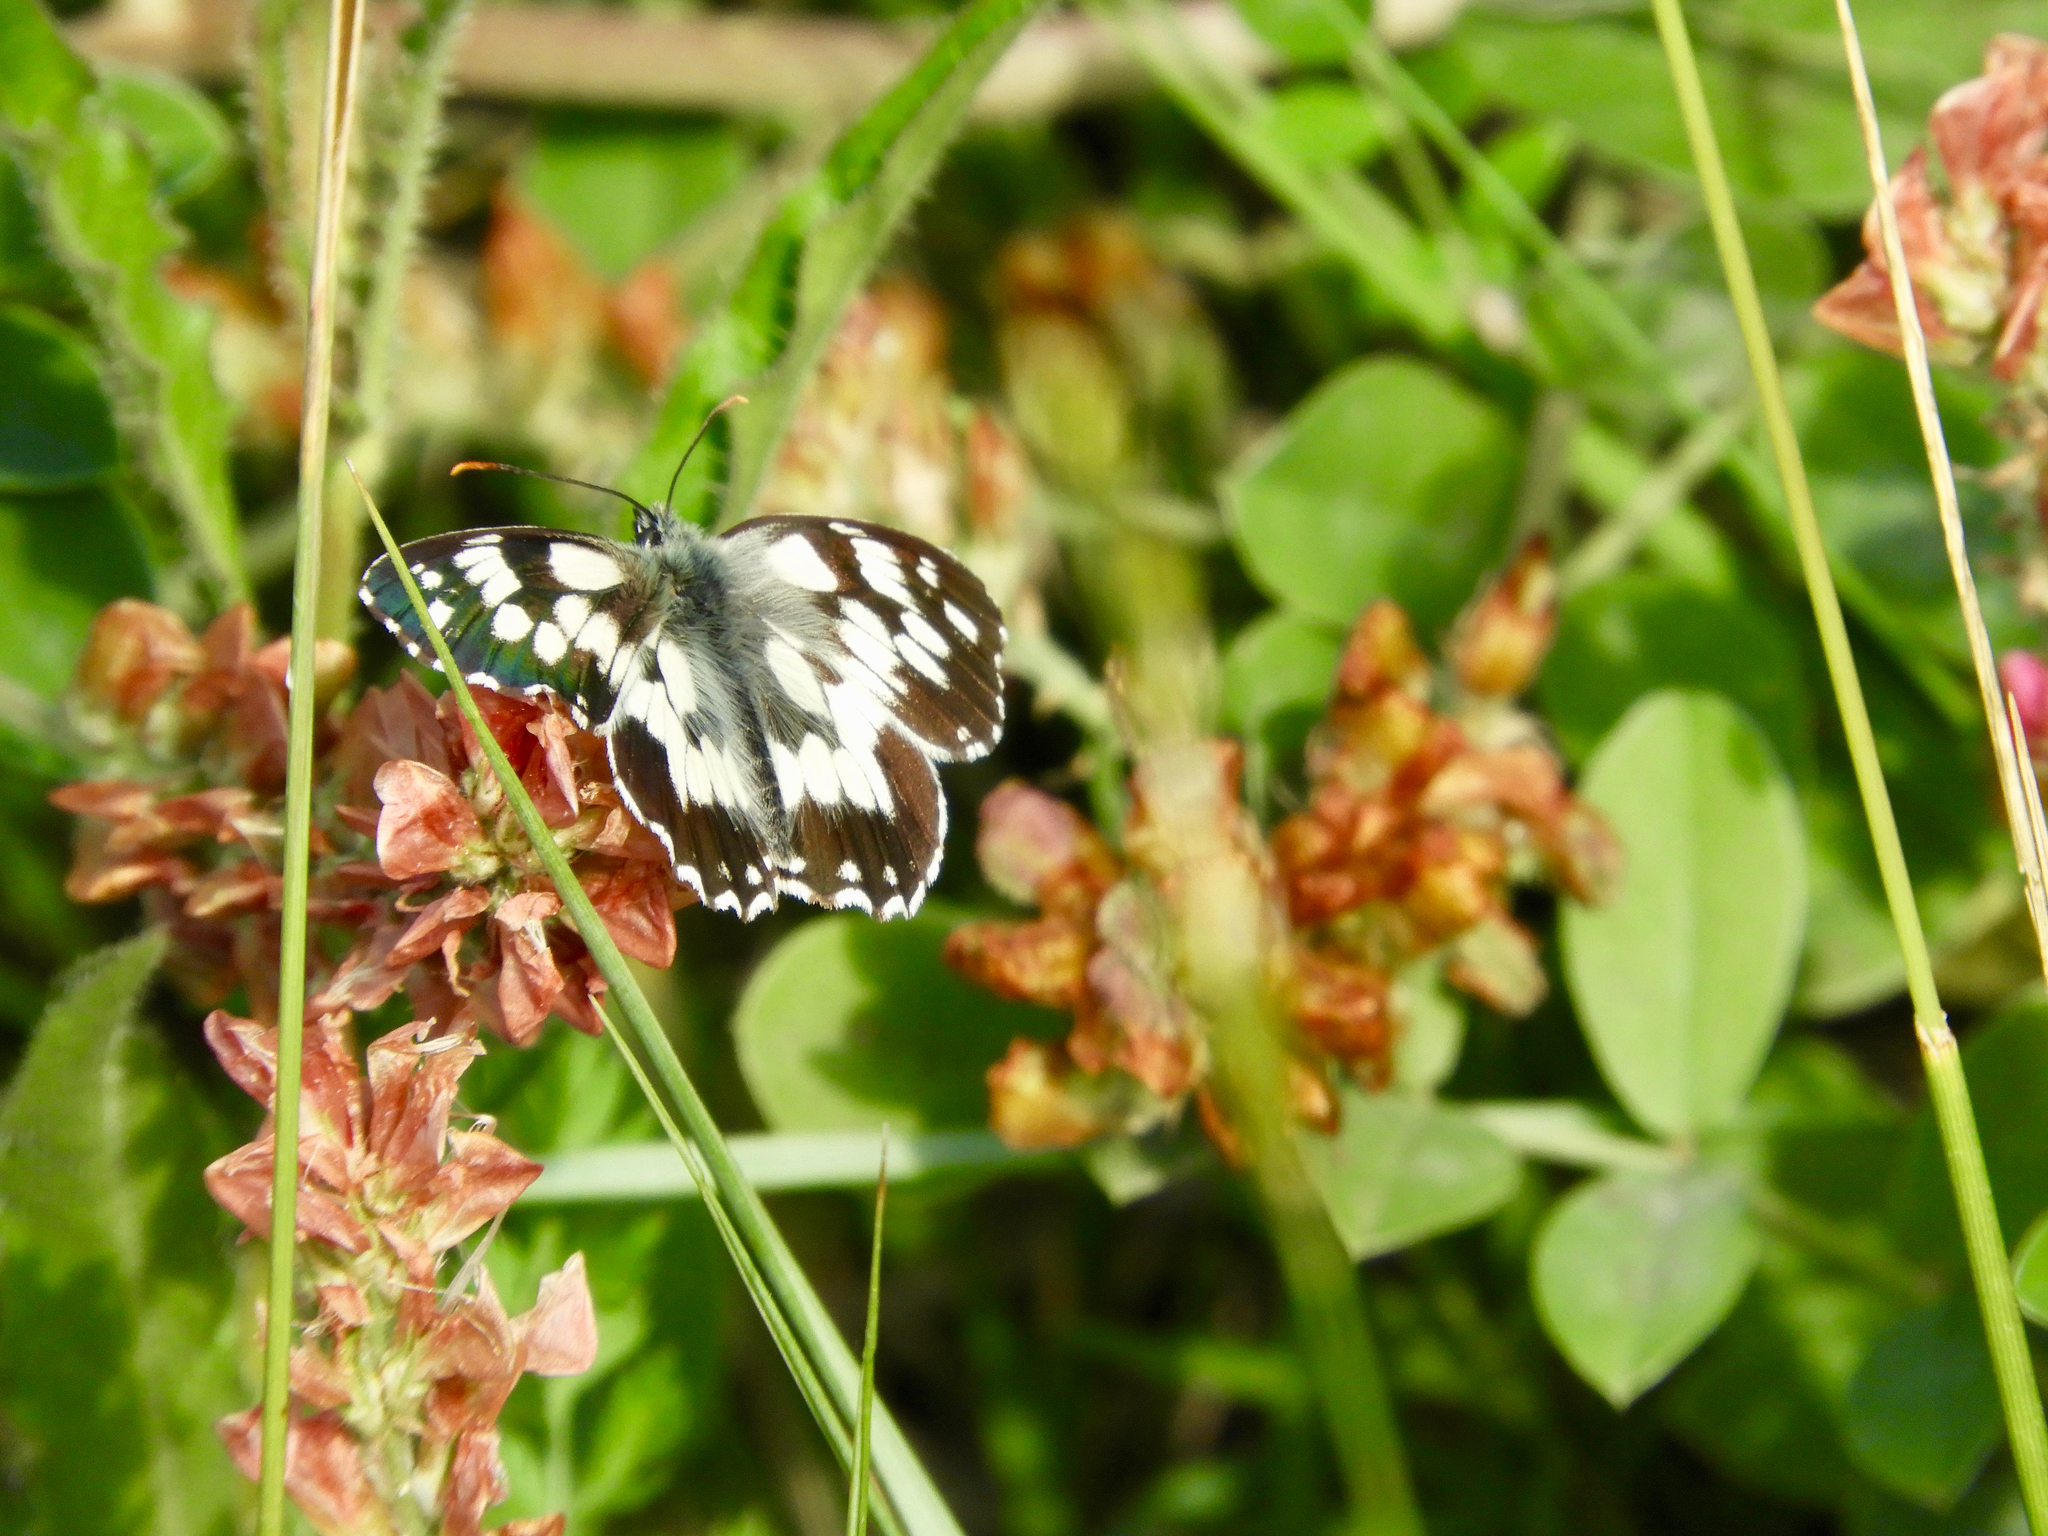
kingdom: Animalia
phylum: Arthropoda
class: Insecta
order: Lepidoptera
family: Nymphalidae
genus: Melanargia
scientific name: Melanargia galathea
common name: Marbled white
